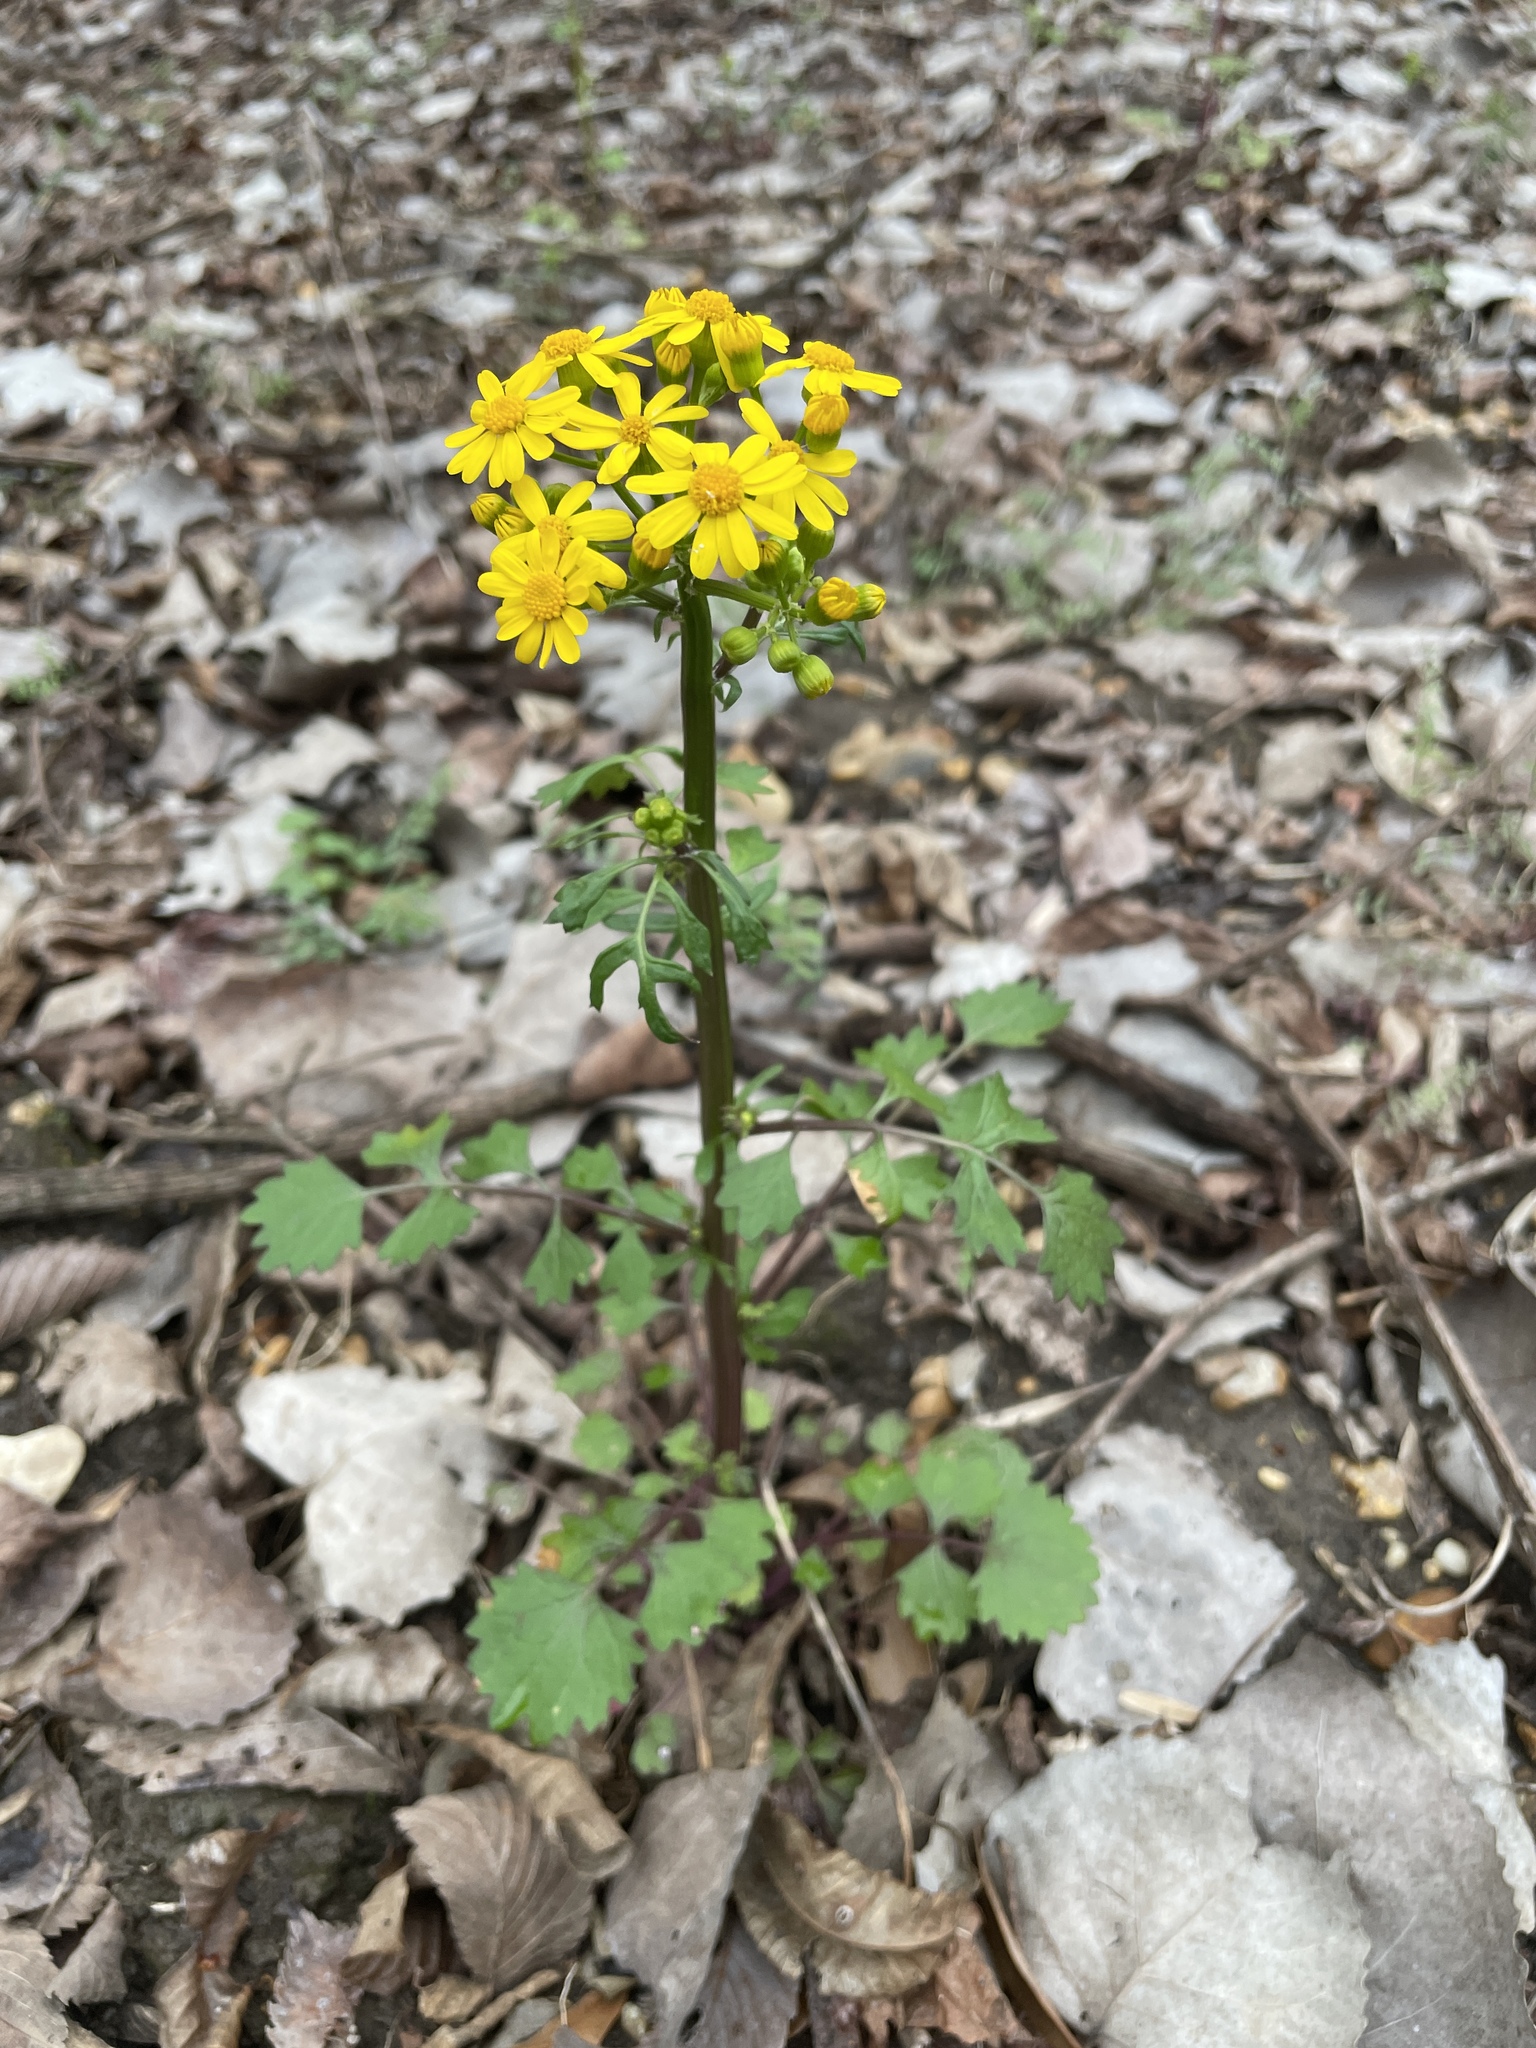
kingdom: Plantae
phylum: Tracheophyta
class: Magnoliopsida
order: Asterales
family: Asteraceae
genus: Packera
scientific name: Packera glabella
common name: Butterweed
